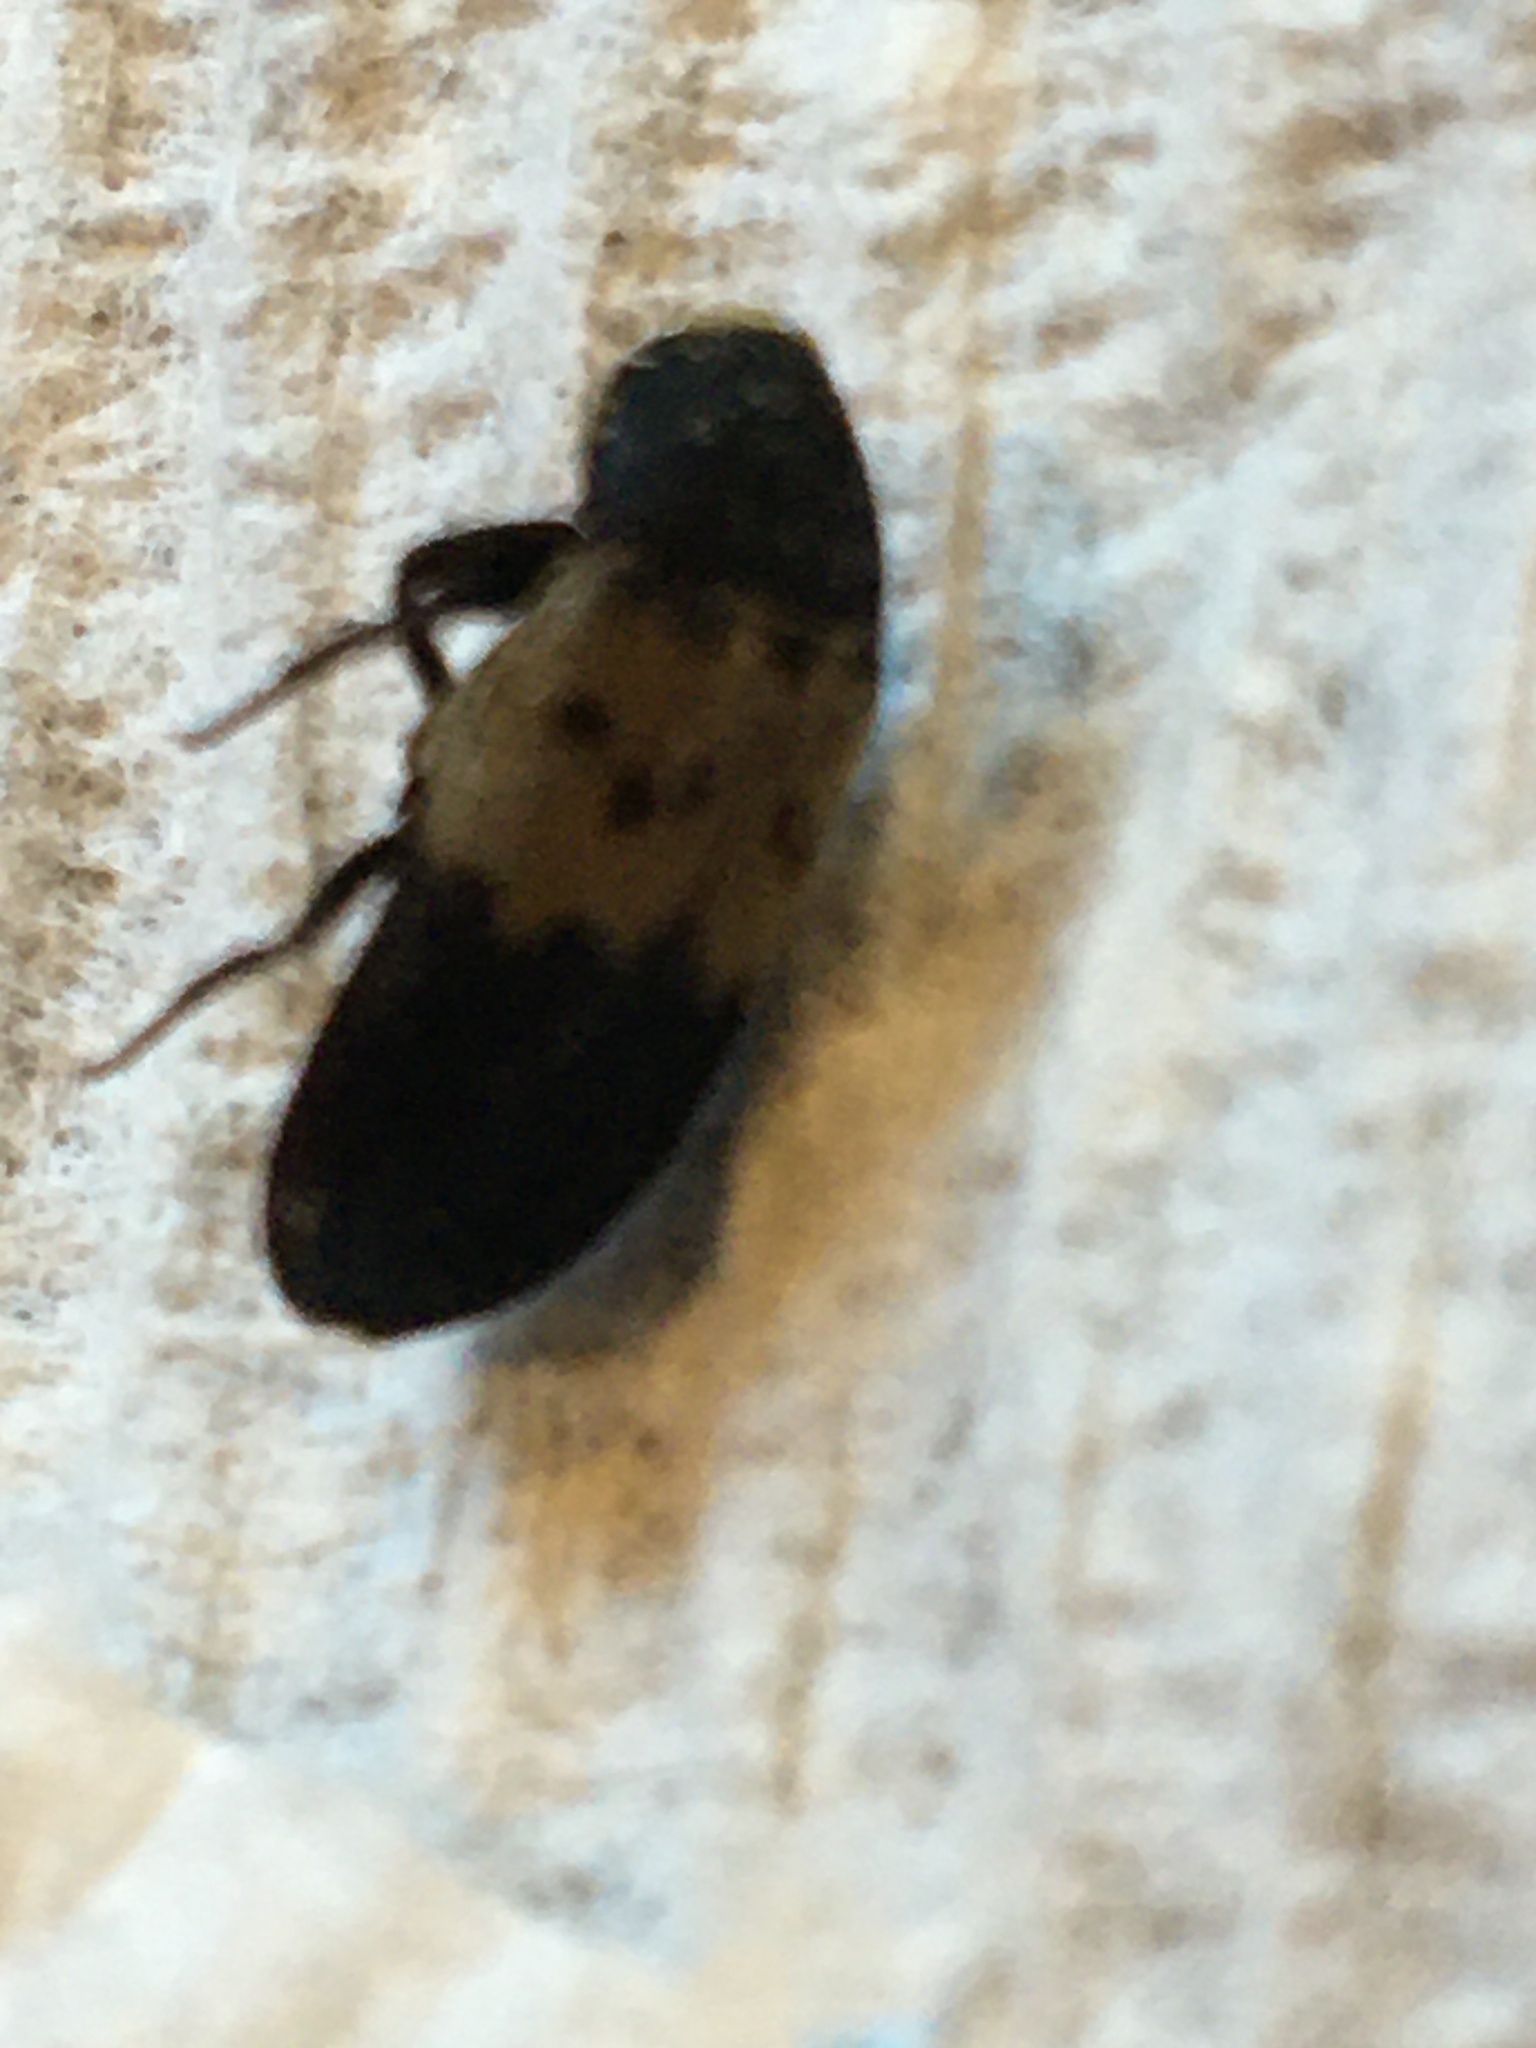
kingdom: Animalia
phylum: Arthropoda
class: Insecta
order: Coleoptera
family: Dermestidae
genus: Dermestes
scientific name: Dermestes lardarius
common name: Larder beetle
